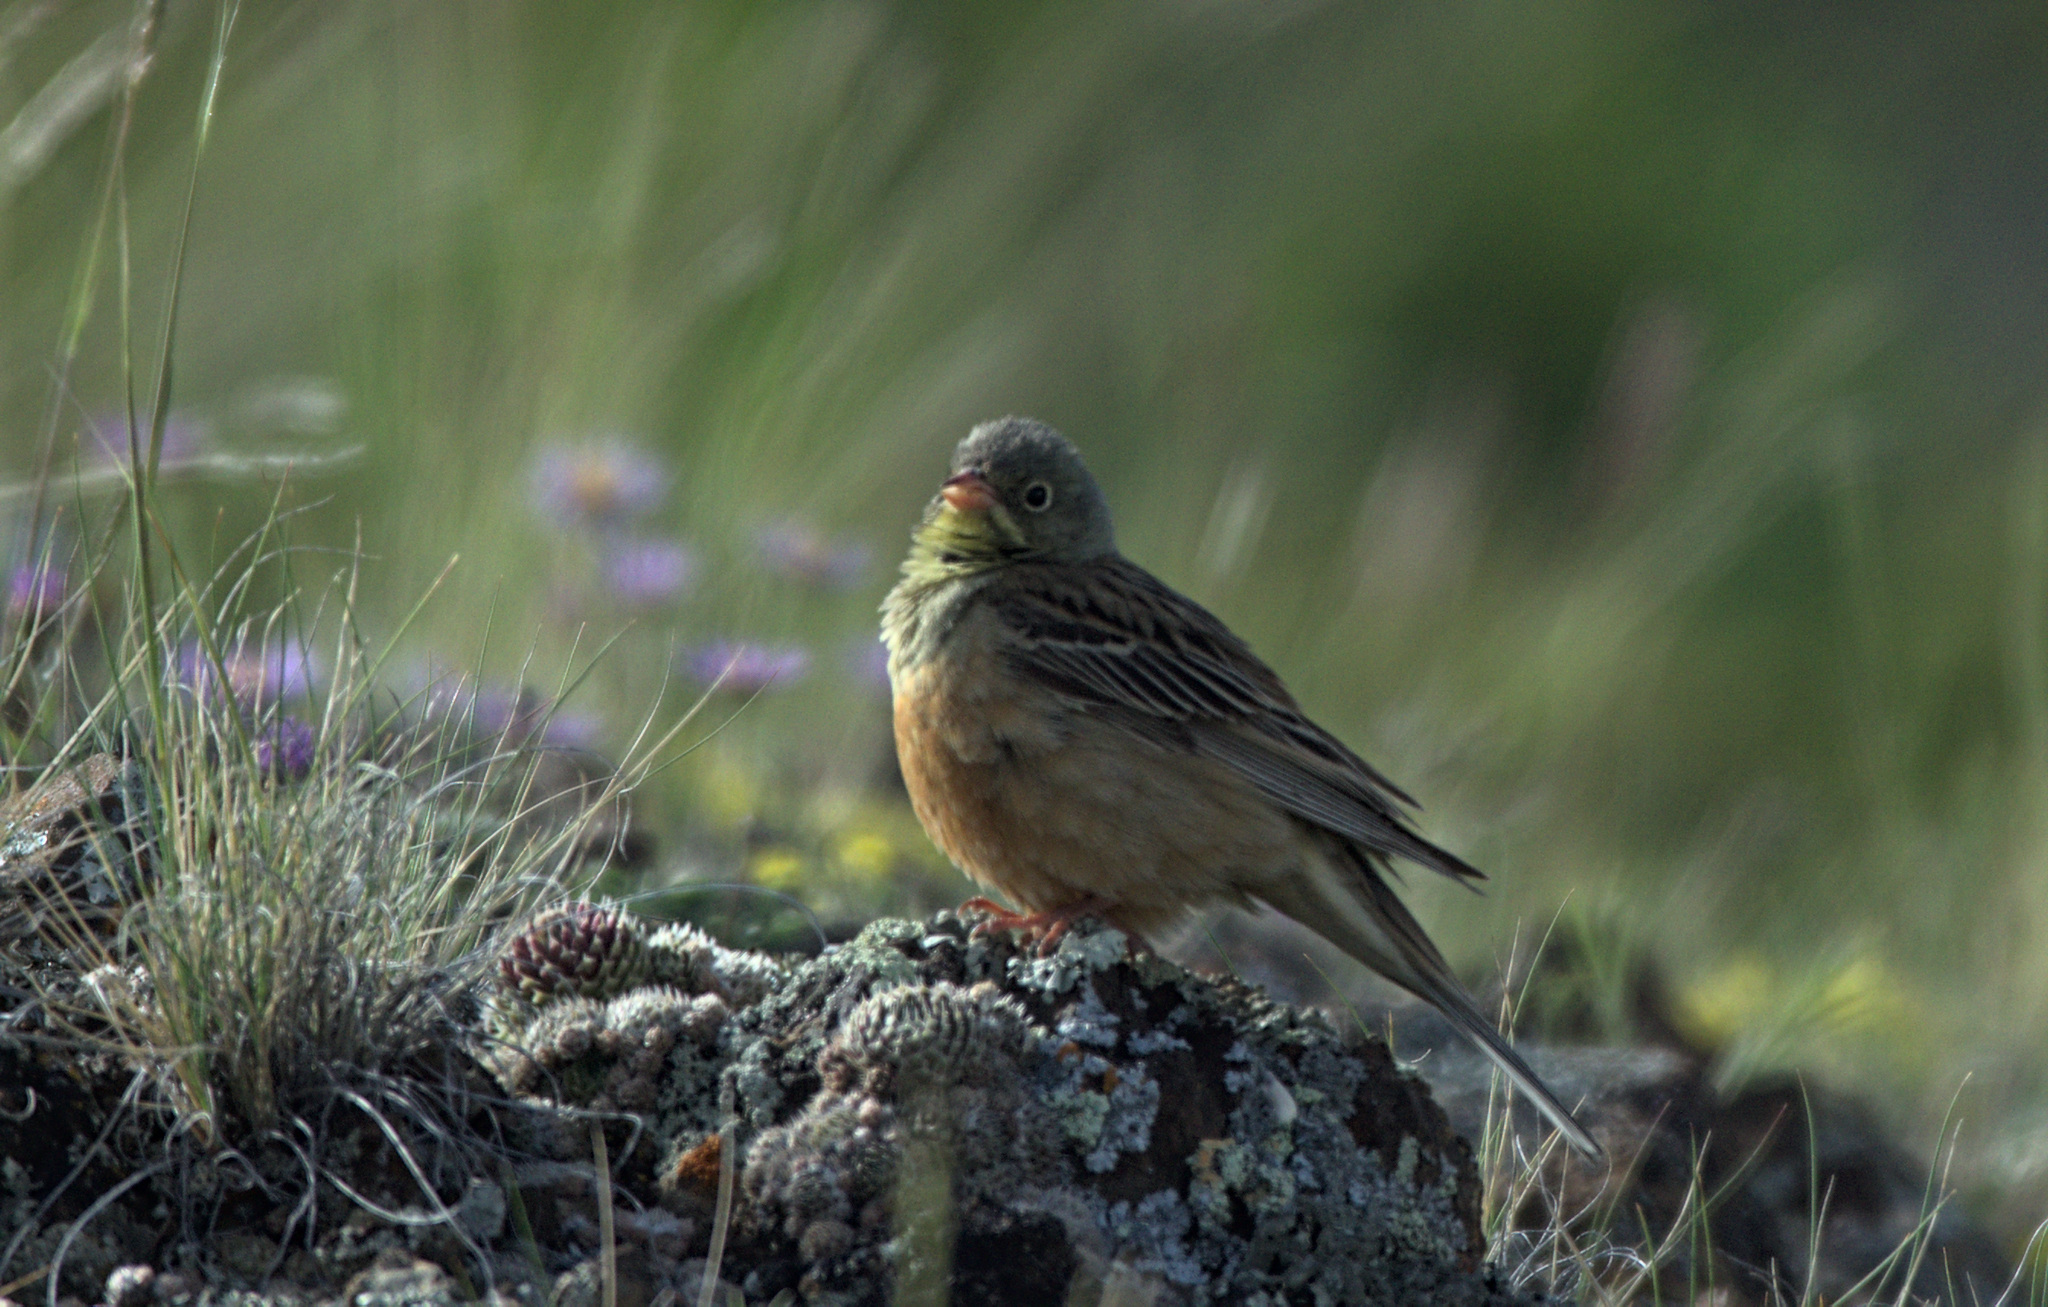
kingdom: Animalia
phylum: Chordata
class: Aves
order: Passeriformes
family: Emberizidae
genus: Emberiza
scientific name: Emberiza hortulana
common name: Ortolan bunting
